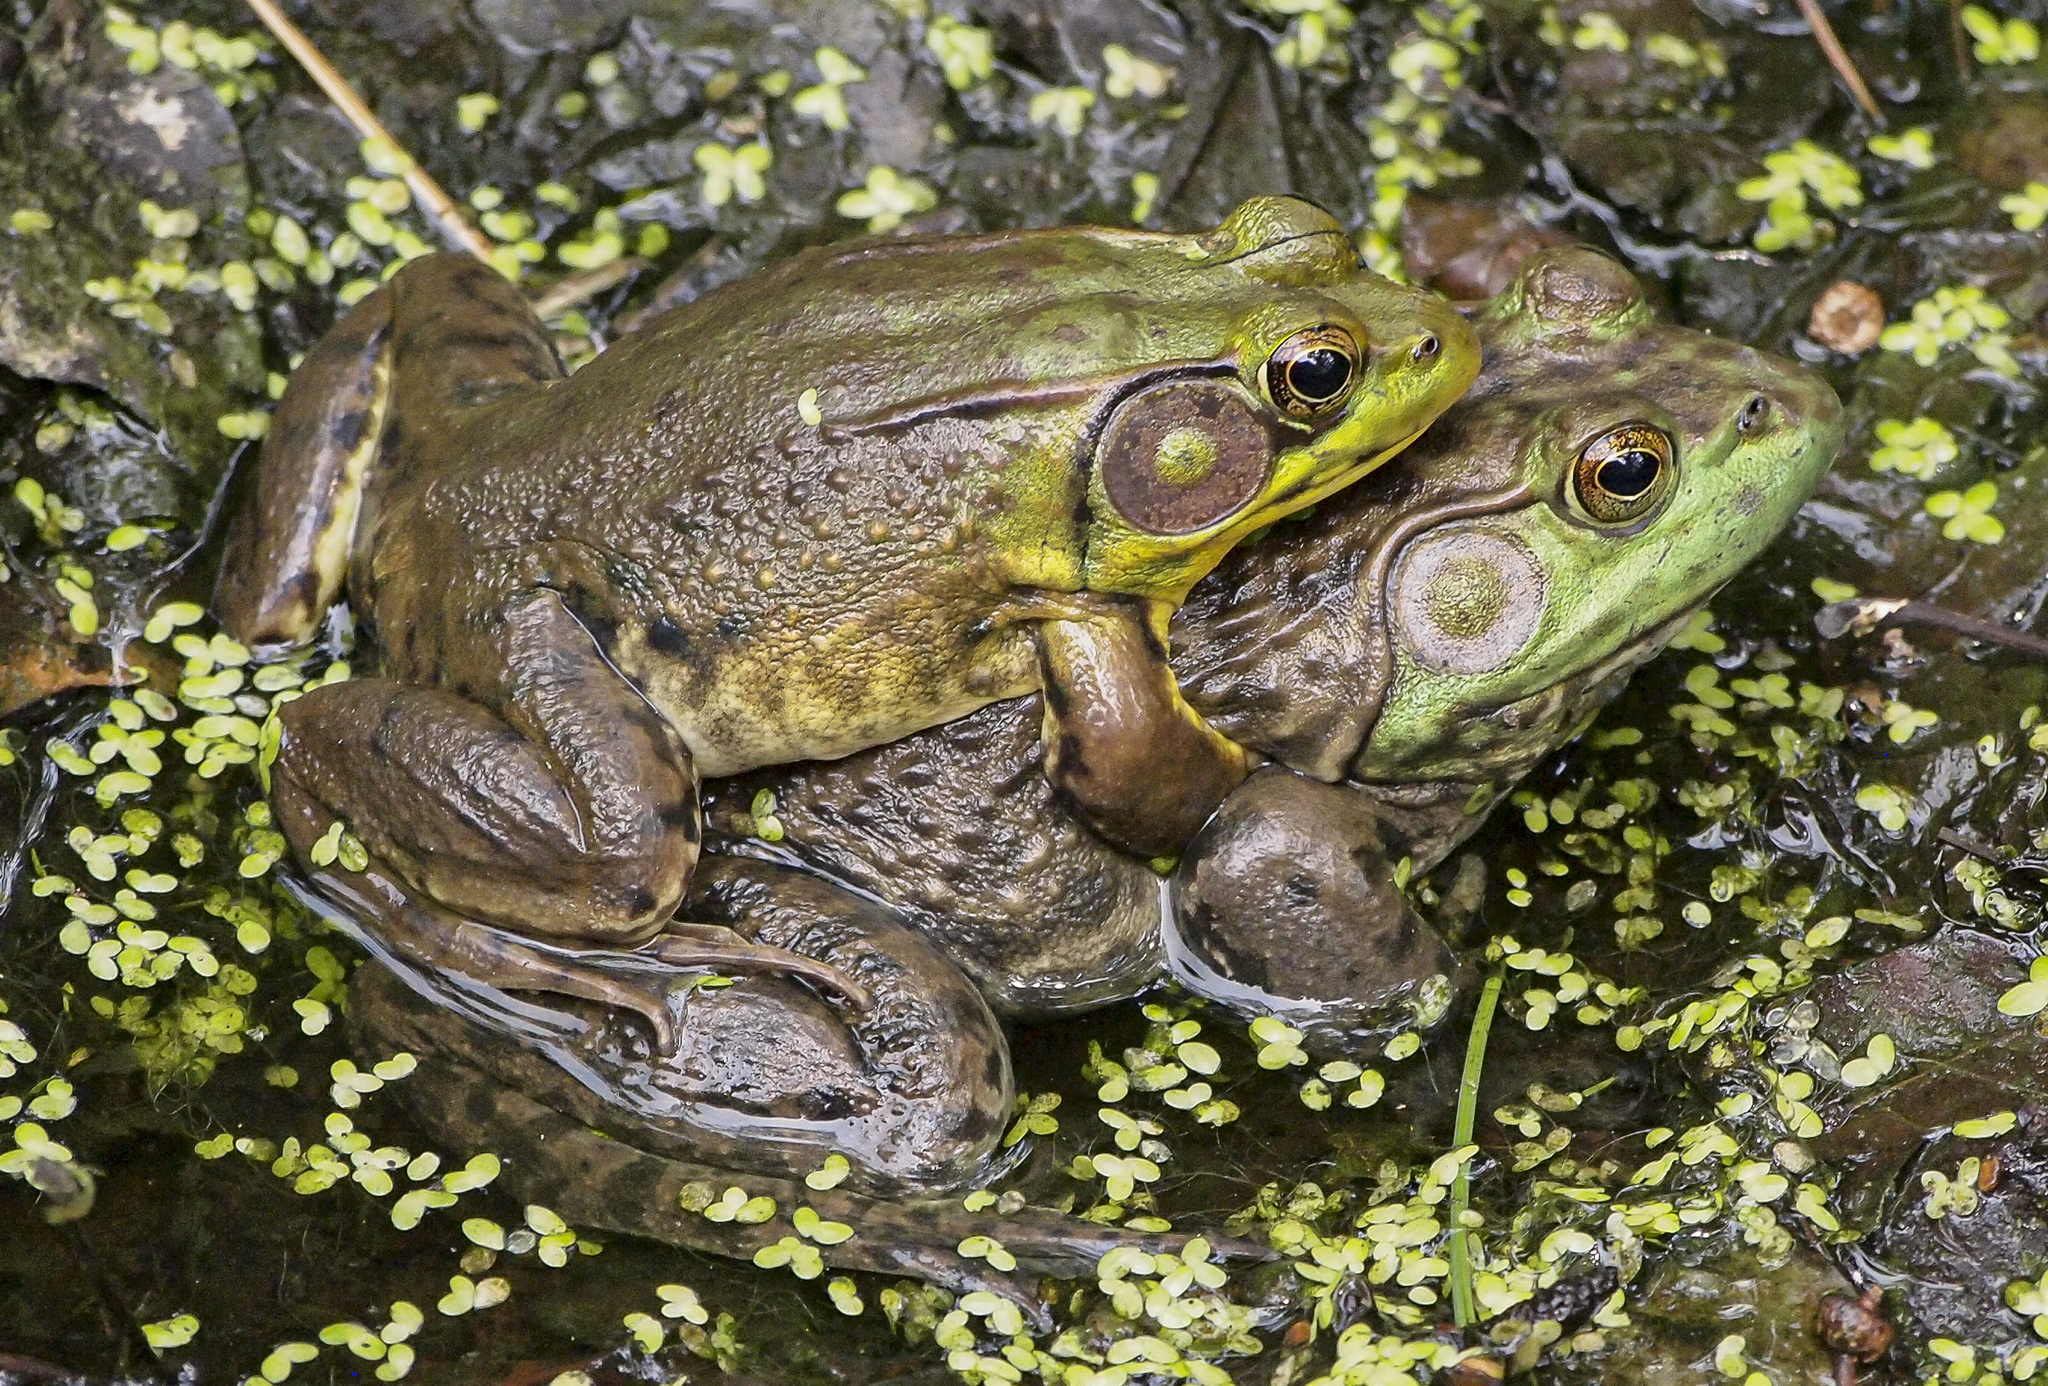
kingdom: Animalia
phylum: Chordata
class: Amphibia
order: Anura
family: Ranidae
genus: Lithobates
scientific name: Lithobates catesbeianus
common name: American bullfrog
